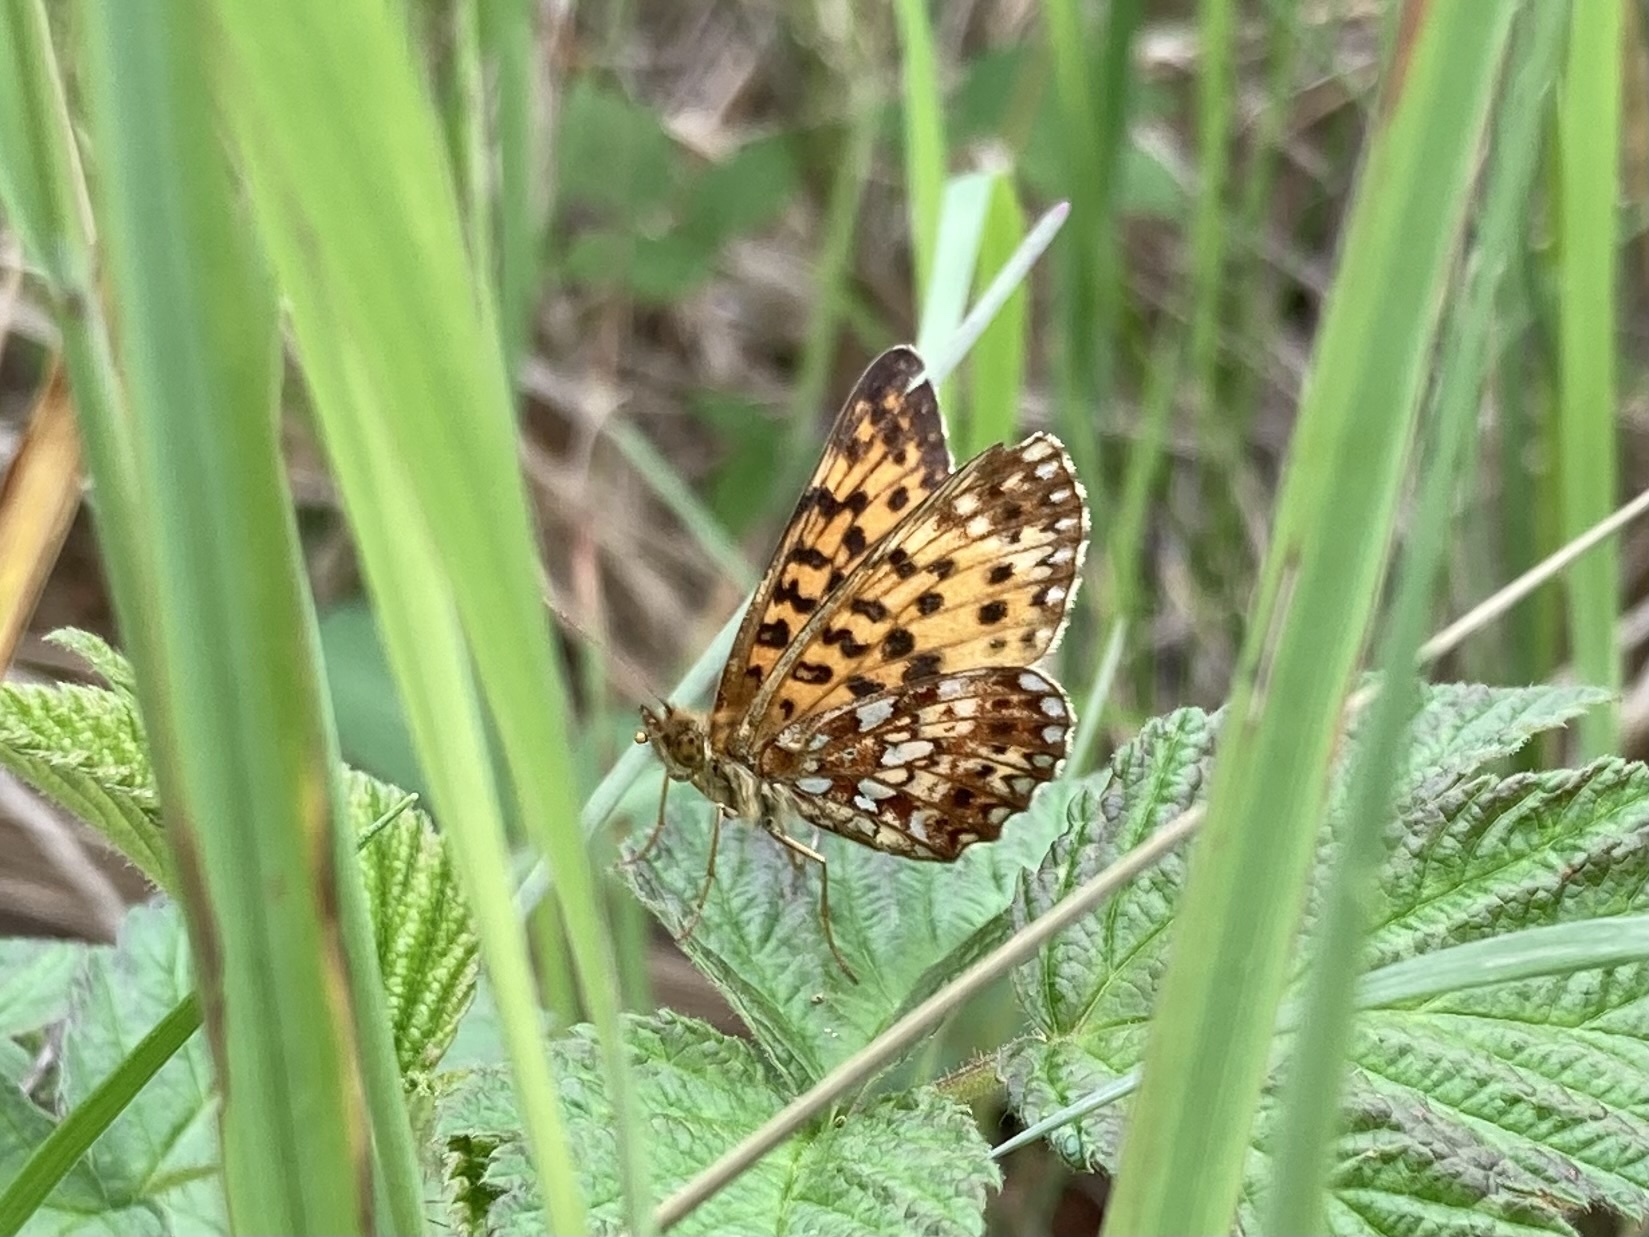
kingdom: Animalia
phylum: Arthropoda
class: Insecta
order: Lepidoptera
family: Nymphalidae
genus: Boloria
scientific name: Boloria
